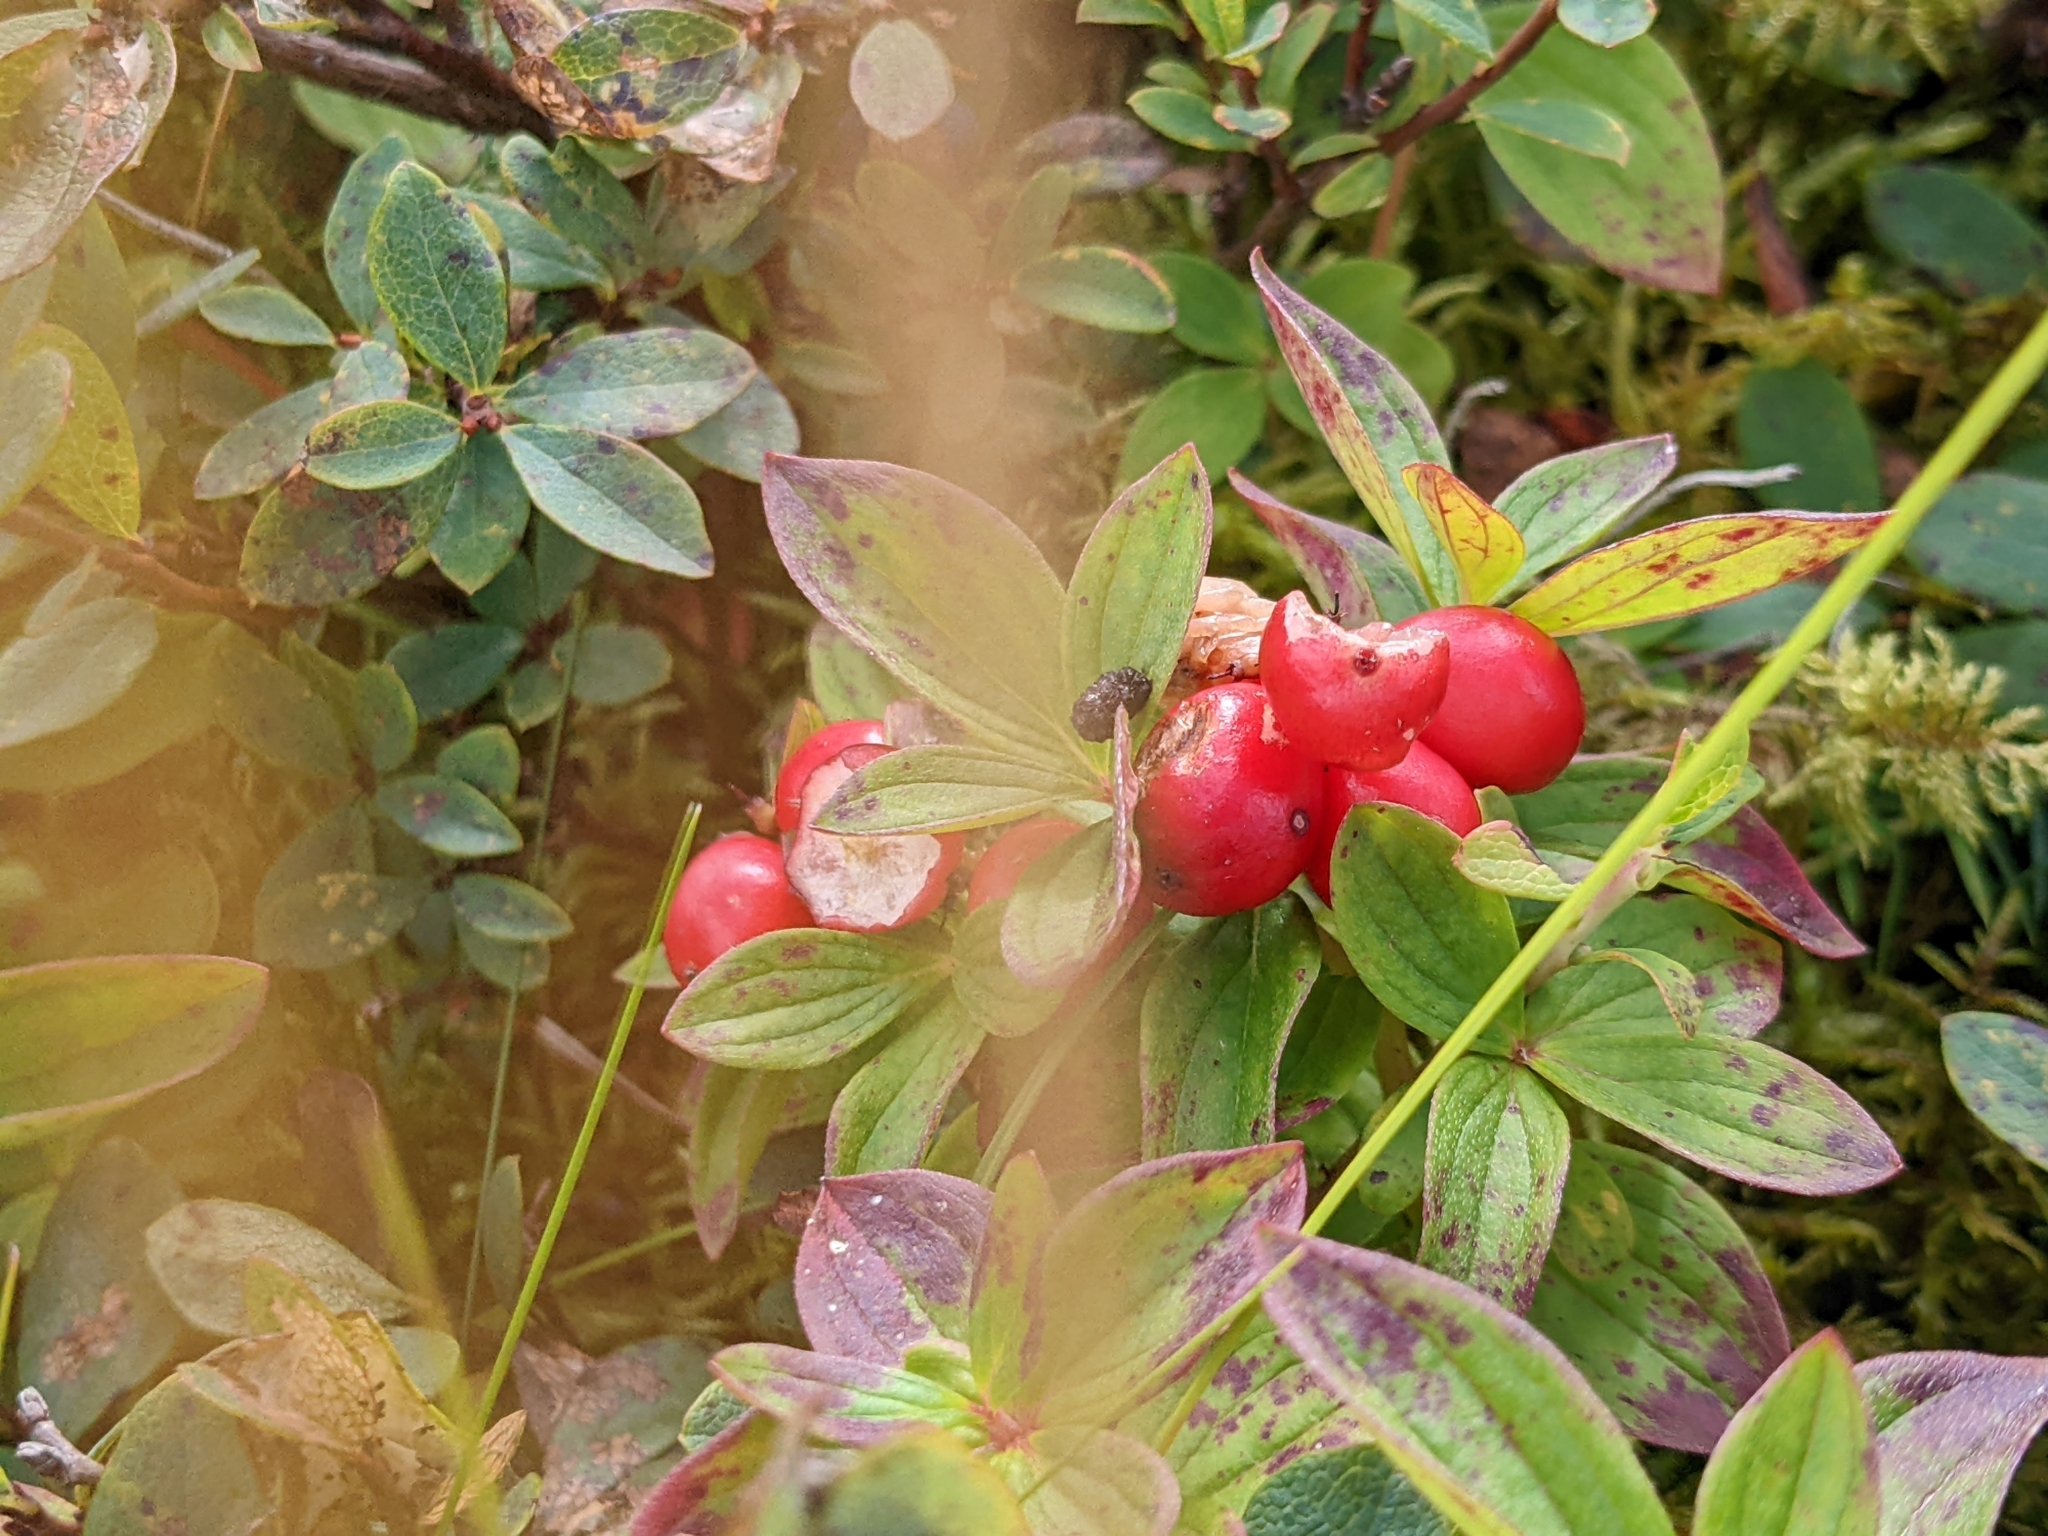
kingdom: Plantae
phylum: Tracheophyta
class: Magnoliopsida
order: Cornales
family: Cornaceae
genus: Cornus
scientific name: Cornus suecica
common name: Dwarf cornel
